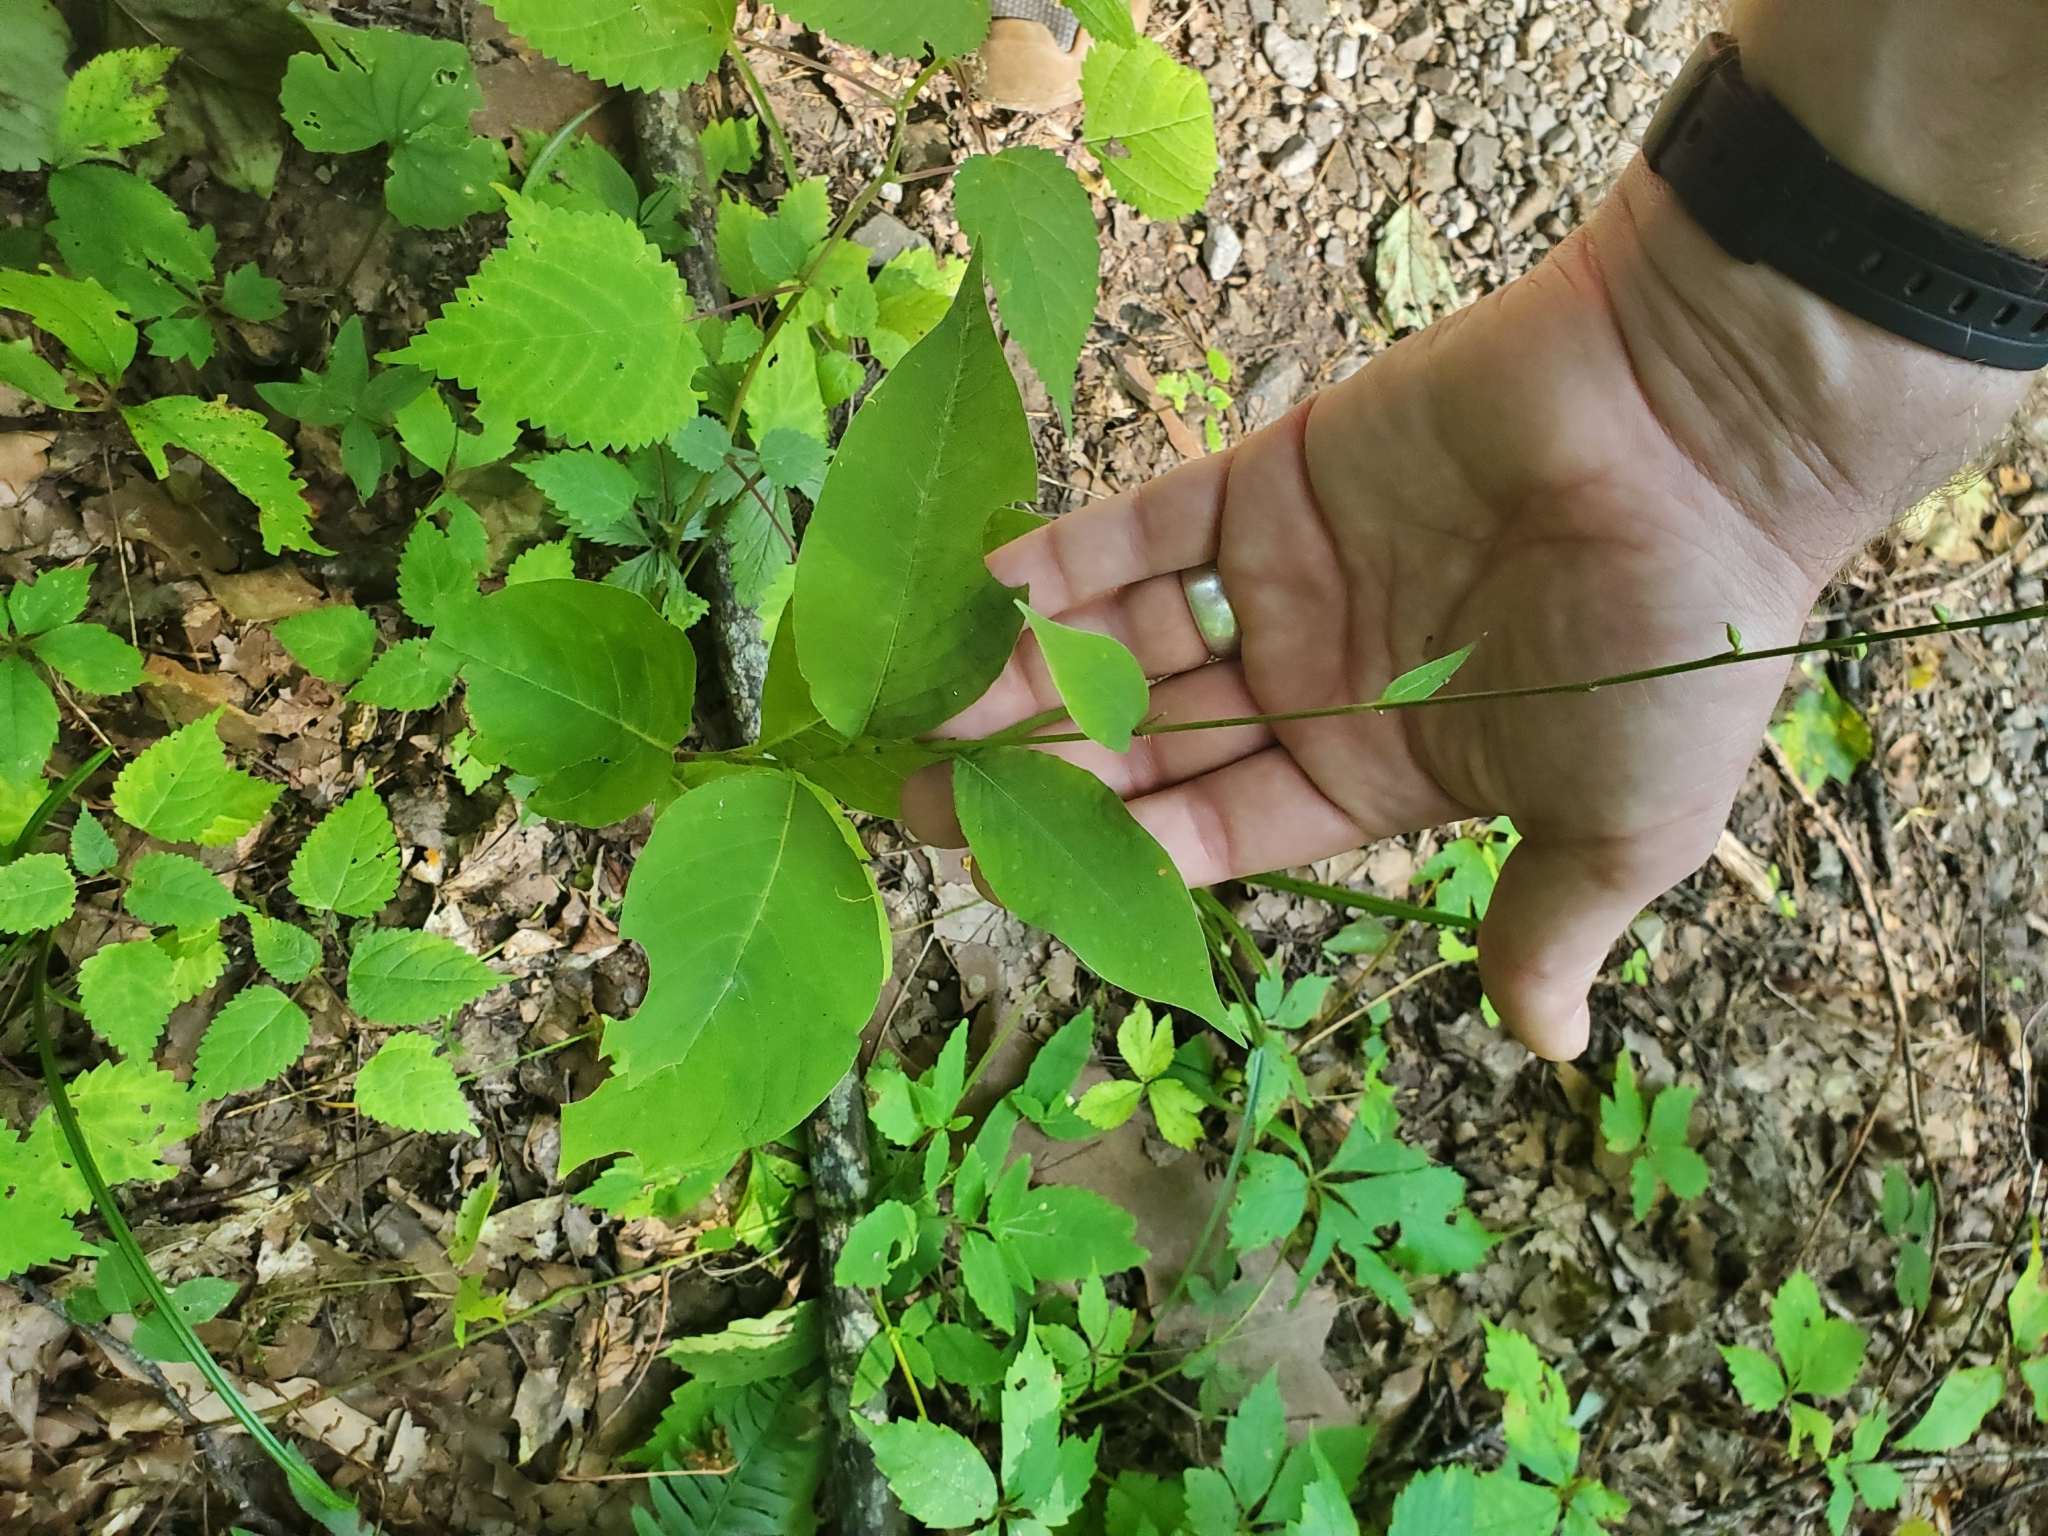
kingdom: Plantae
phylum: Tracheophyta
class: Magnoliopsida
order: Caryophyllales
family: Polygonaceae
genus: Persicaria
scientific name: Persicaria virginiana
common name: Jumpseed
